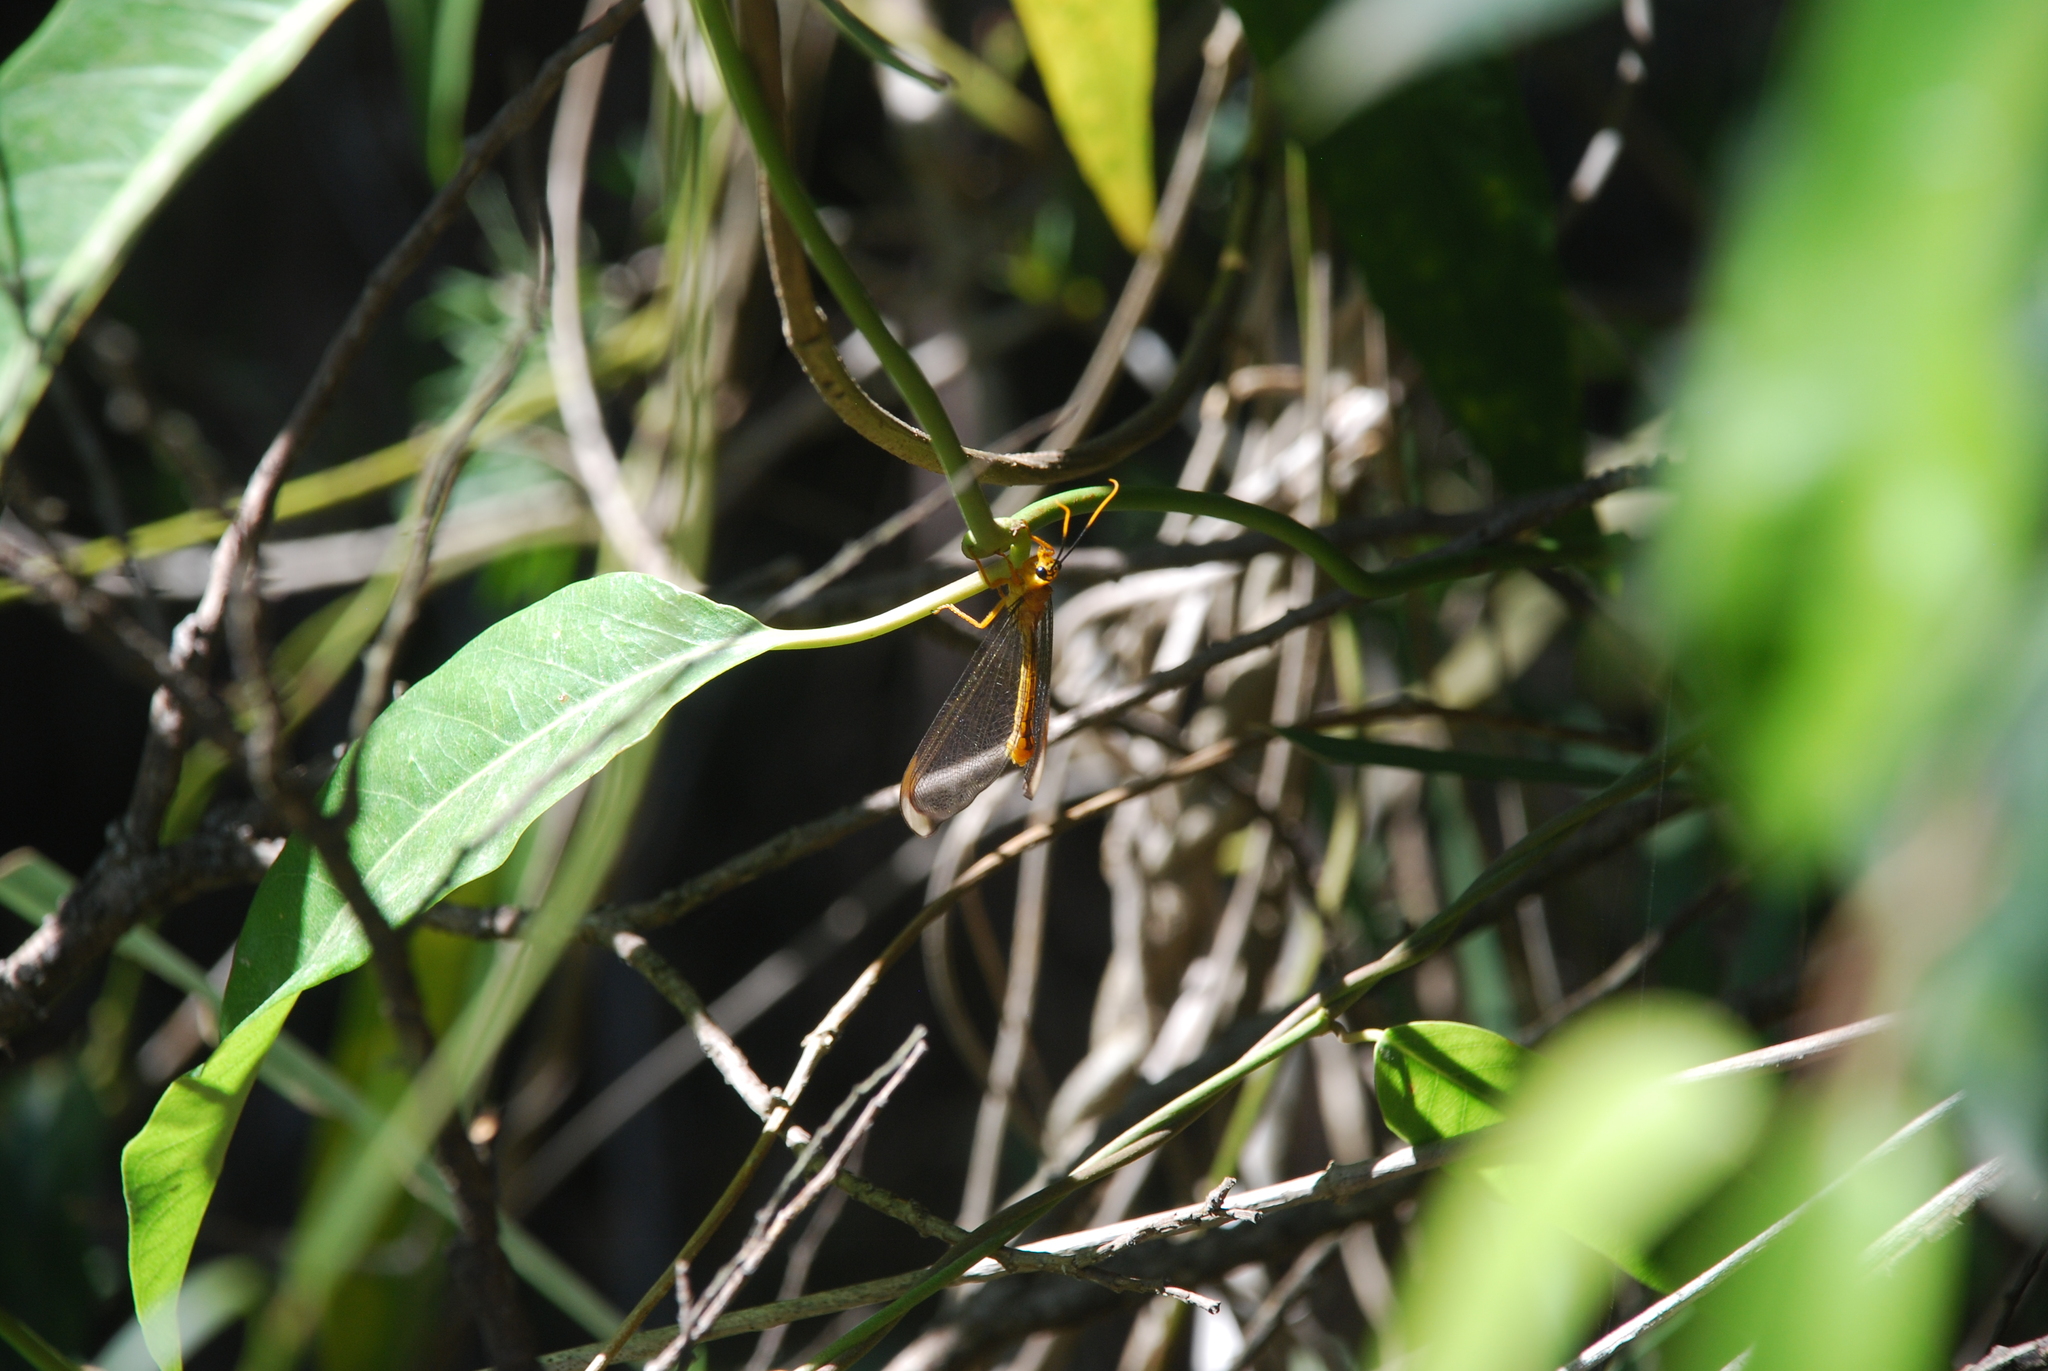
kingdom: Animalia
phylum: Arthropoda
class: Insecta
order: Neuroptera
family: Nymphidae
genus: Nymphes
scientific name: Nymphes myrmeleonoides
